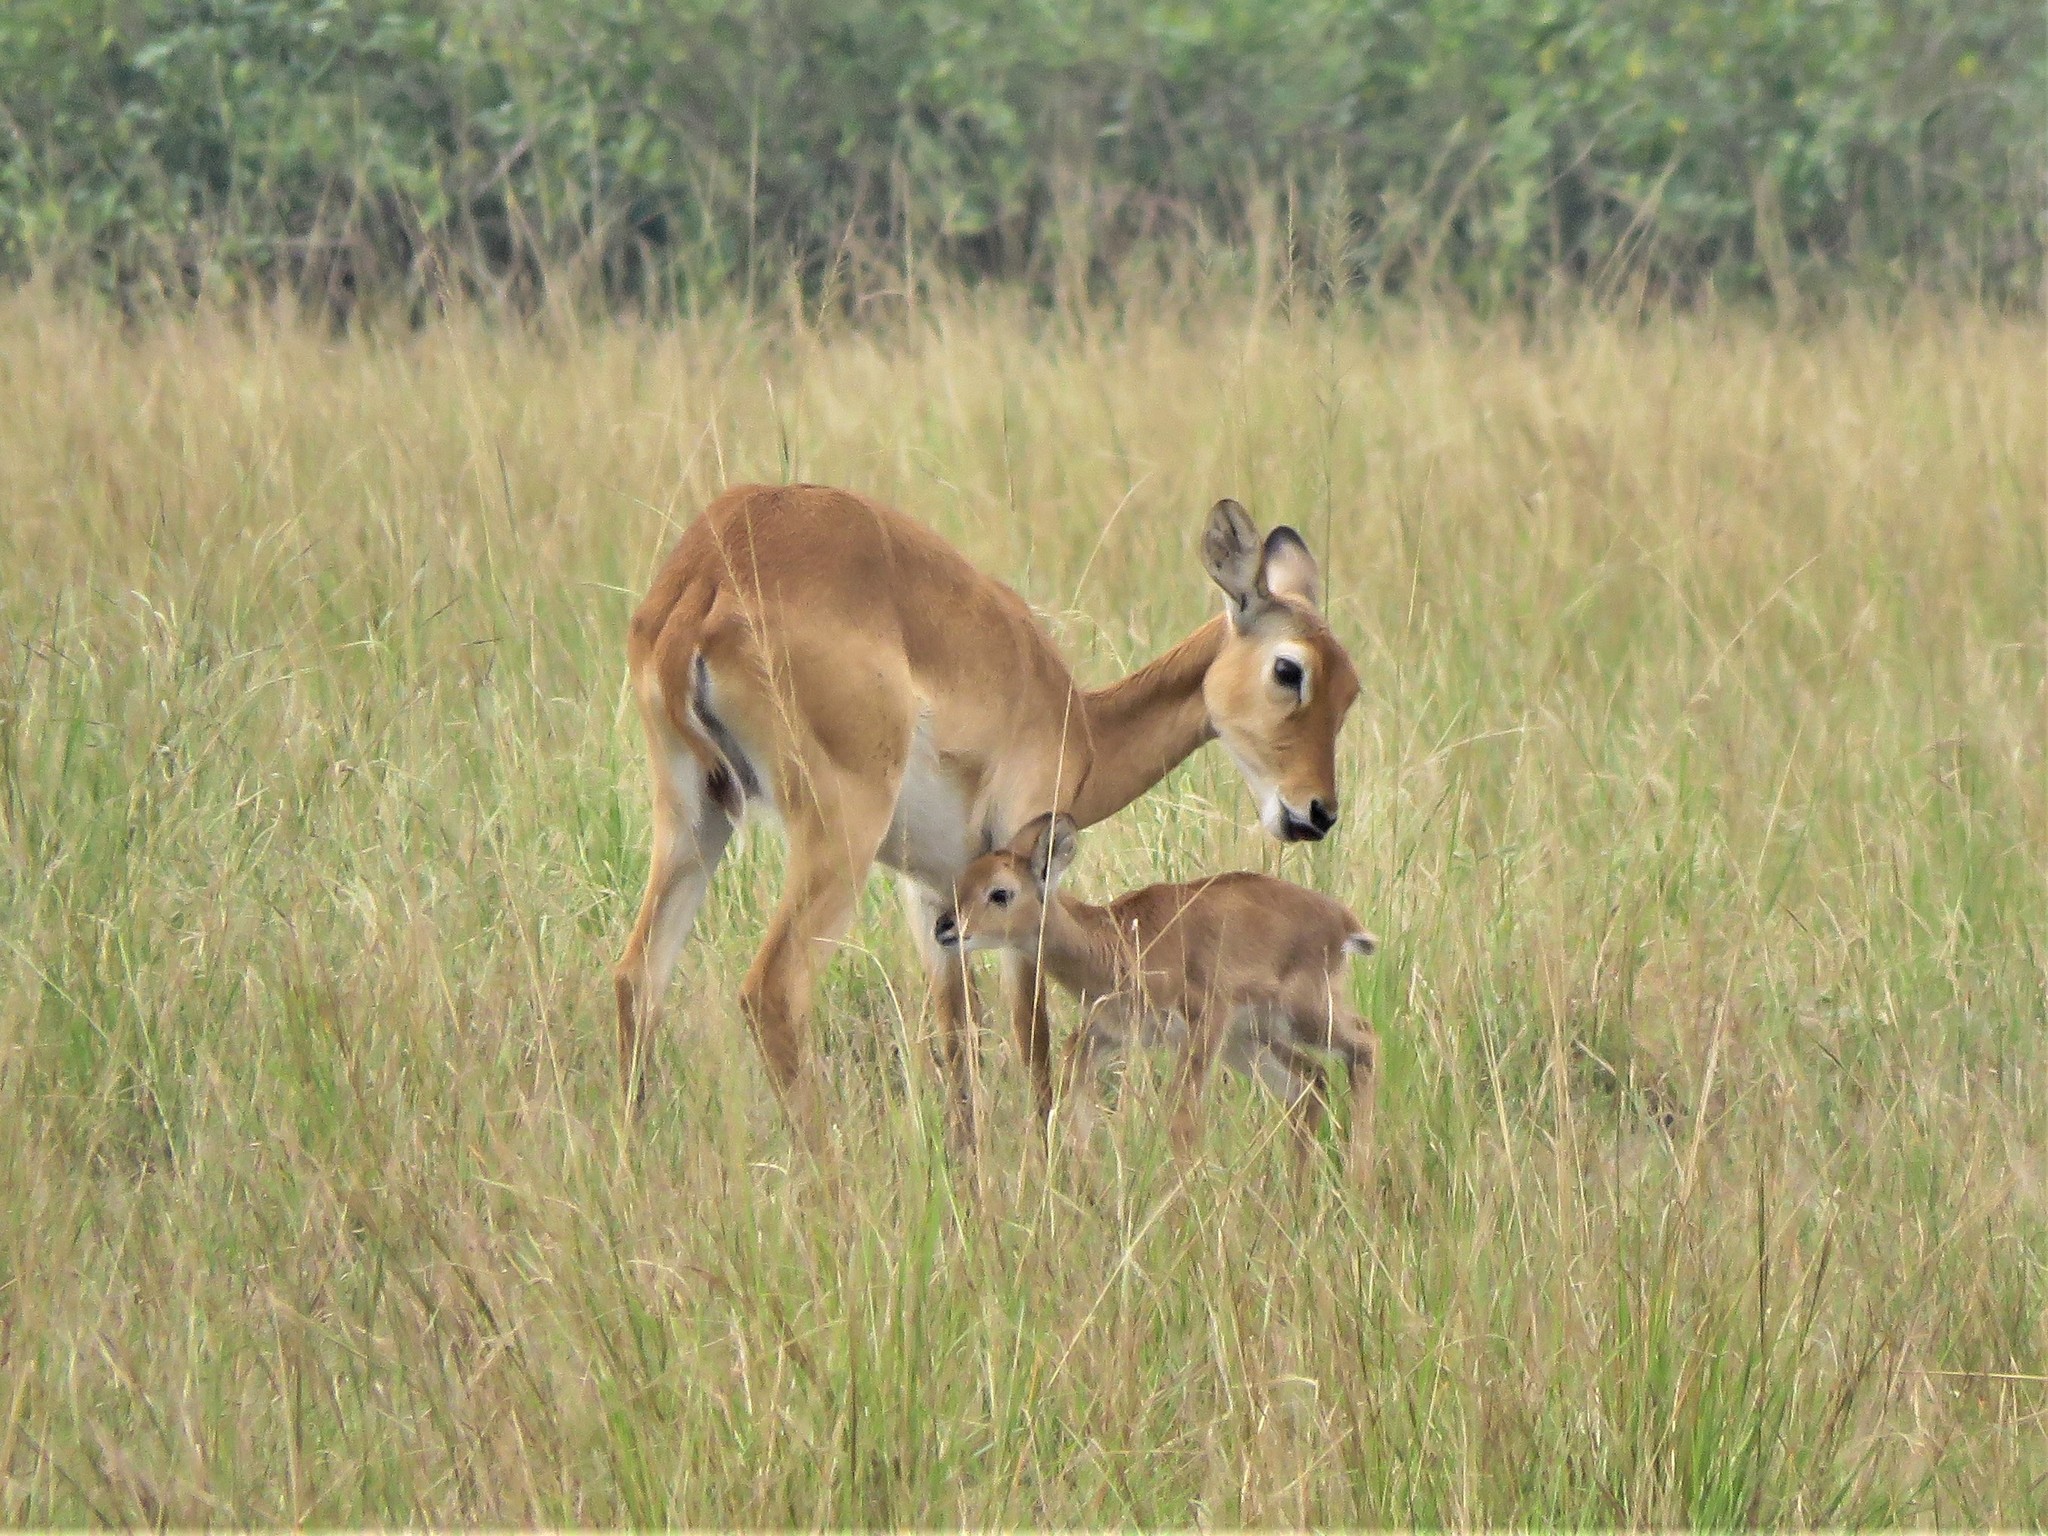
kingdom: Animalia
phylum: Chordata
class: Mammalia
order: Artiodactyla
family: Bovidae
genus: Kobus
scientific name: Kobus kob
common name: Kob
